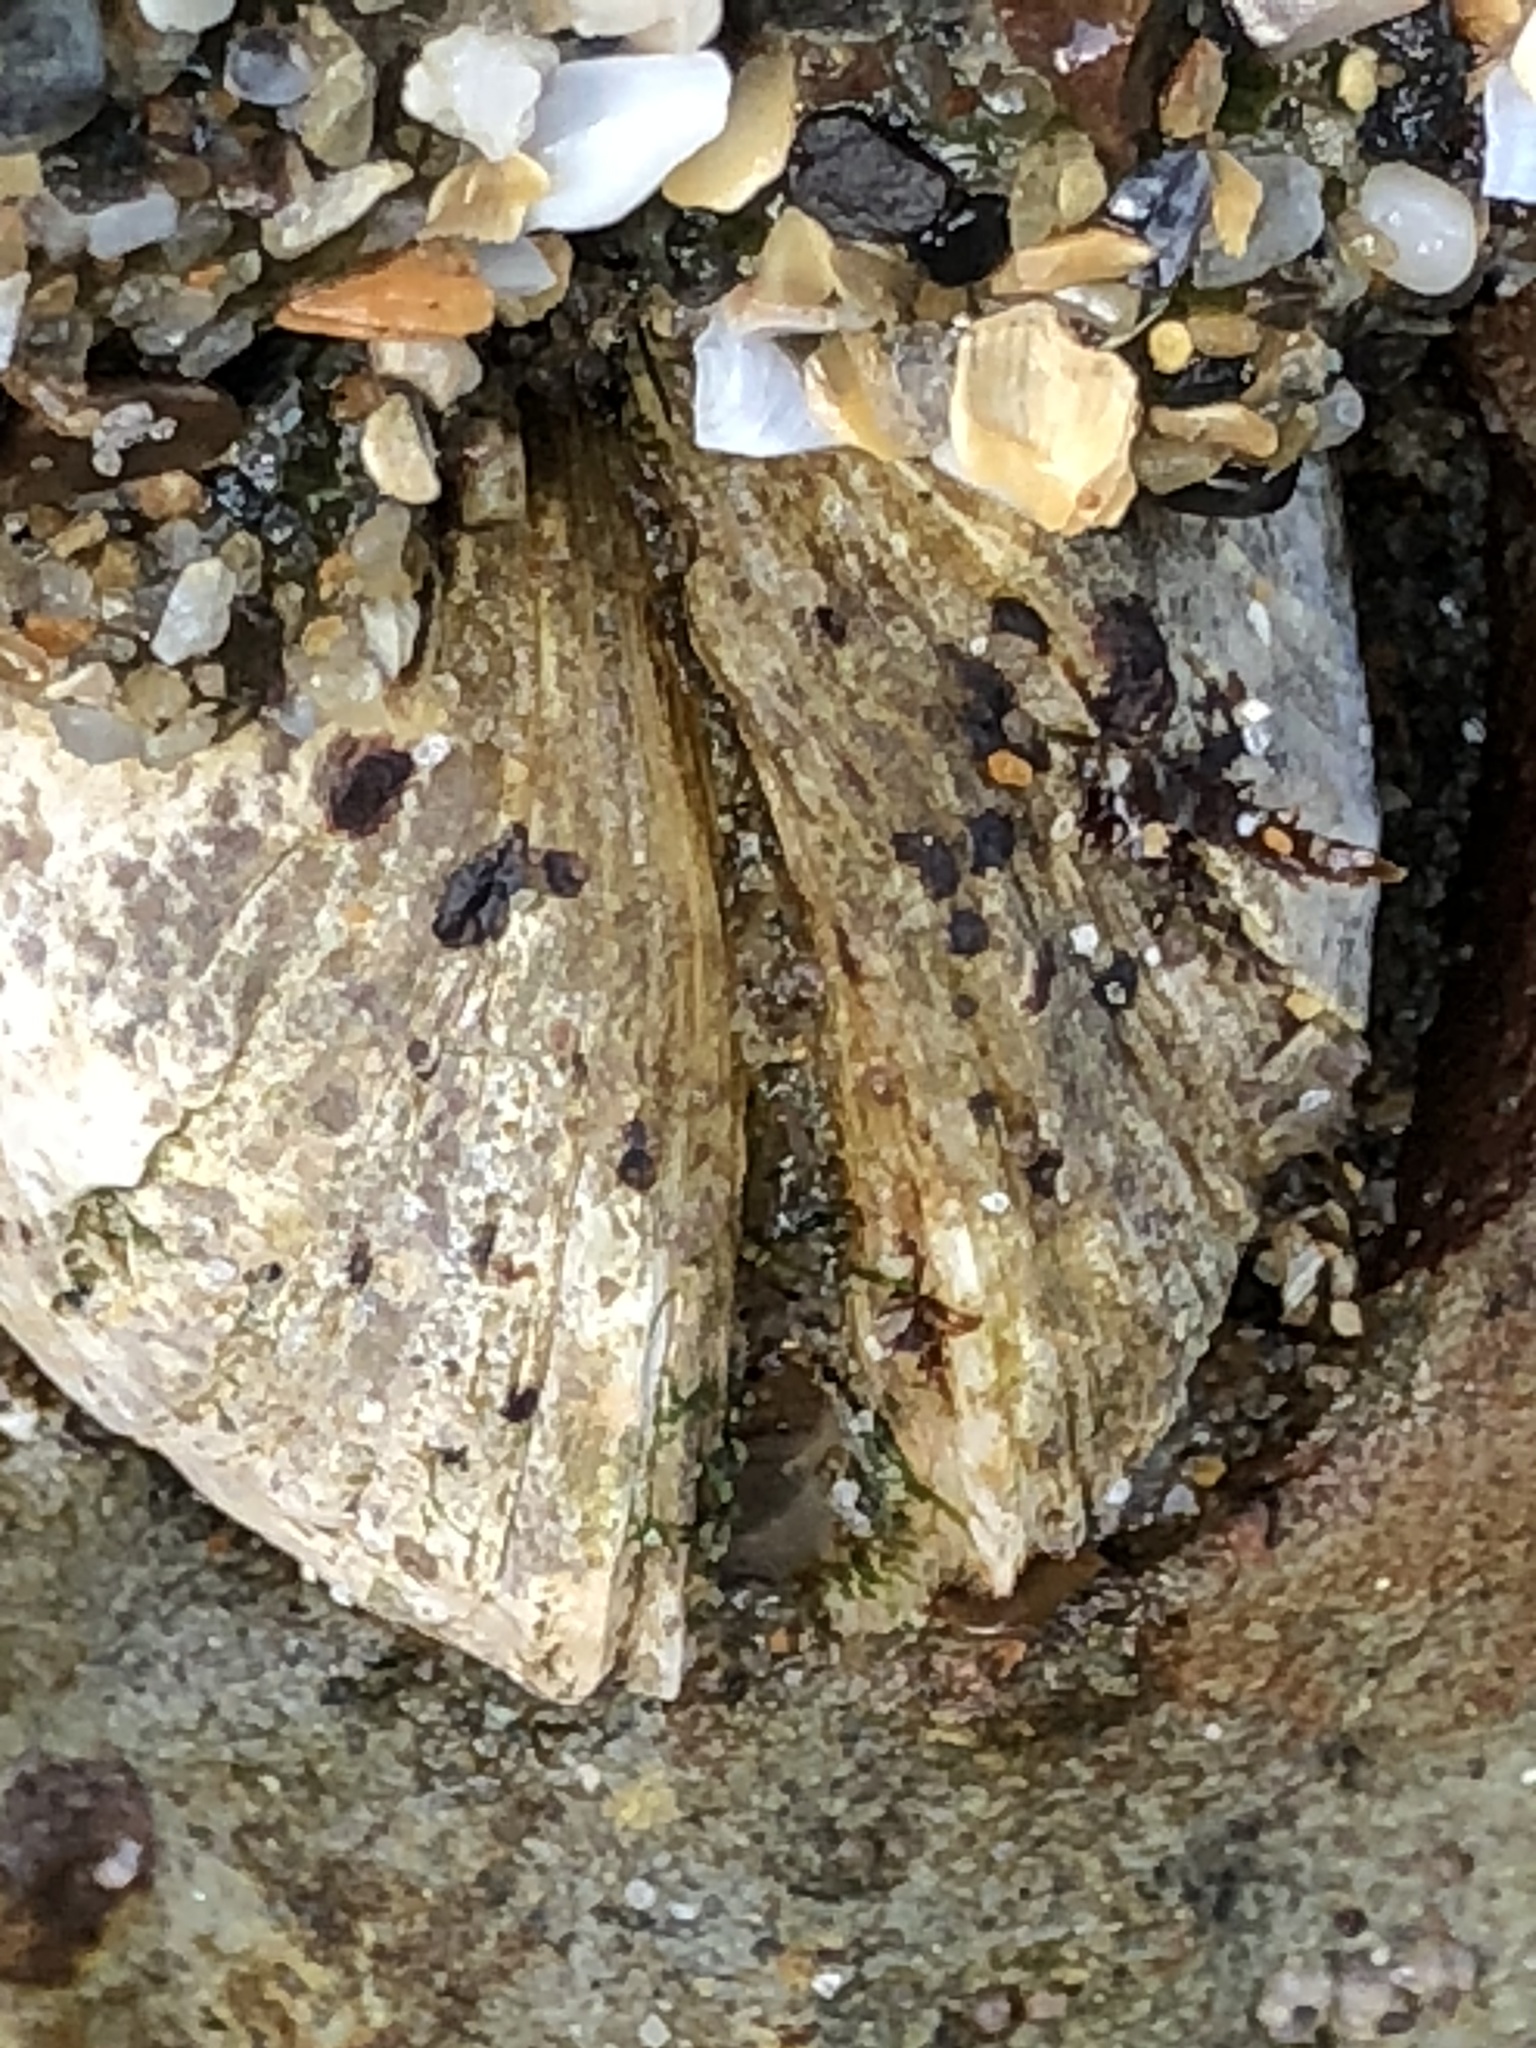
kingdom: Animalia
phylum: Mollusca
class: Bivalvia
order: Venerida
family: Veneridae
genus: Petricola
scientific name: Petricola carditoides
